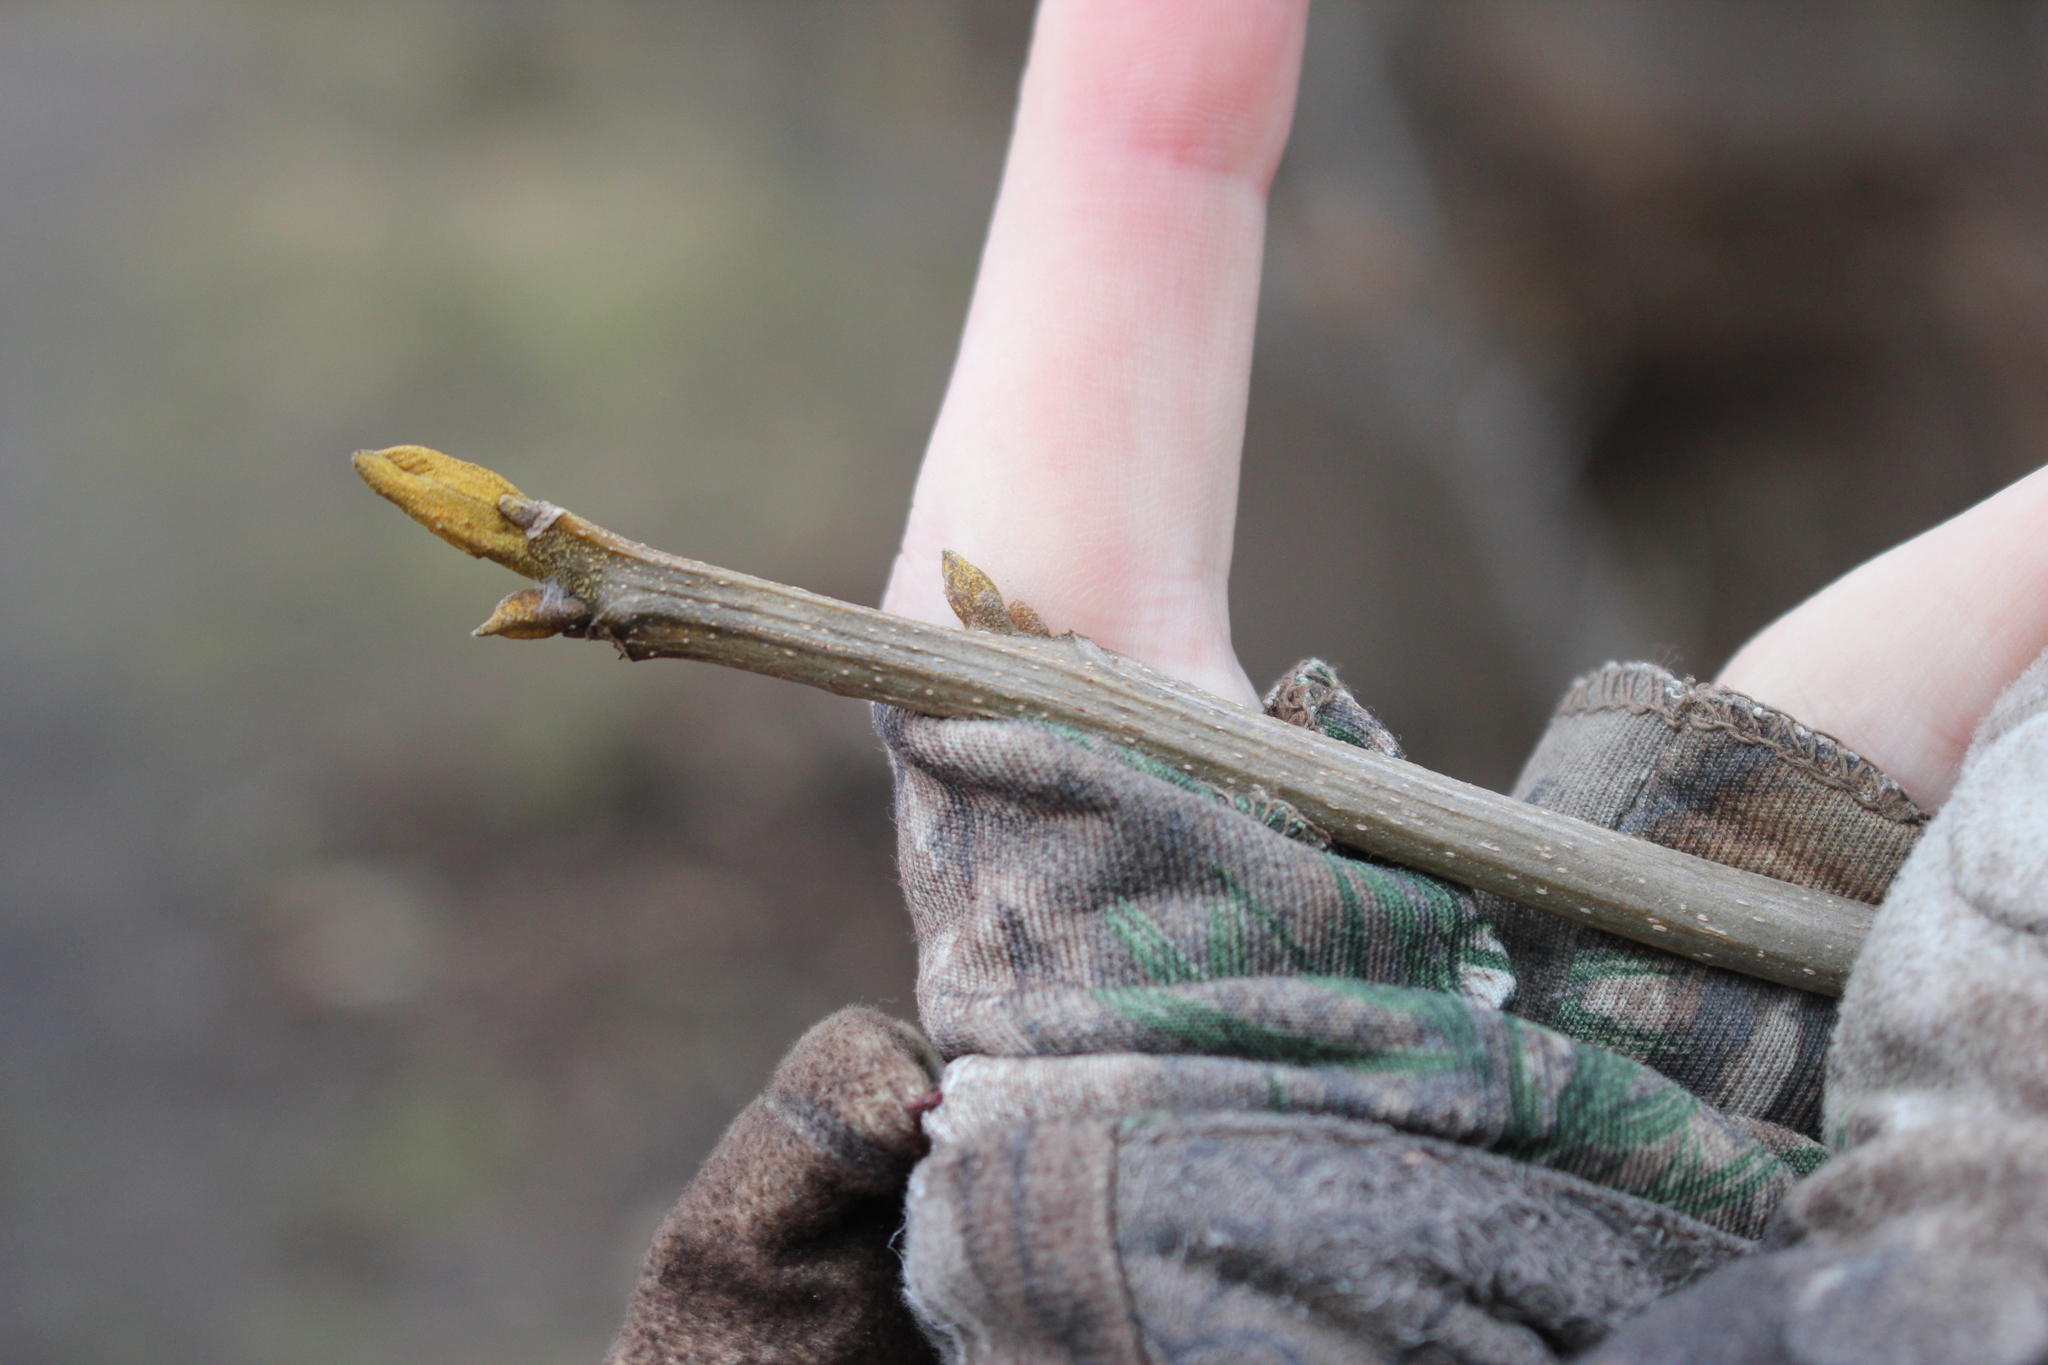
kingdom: Plantae
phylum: Tracheophyta
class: Magnoliopsida
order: Fagales
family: Juglandaceae
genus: Carya
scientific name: Carya cordiformis
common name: Bitternut hickory
